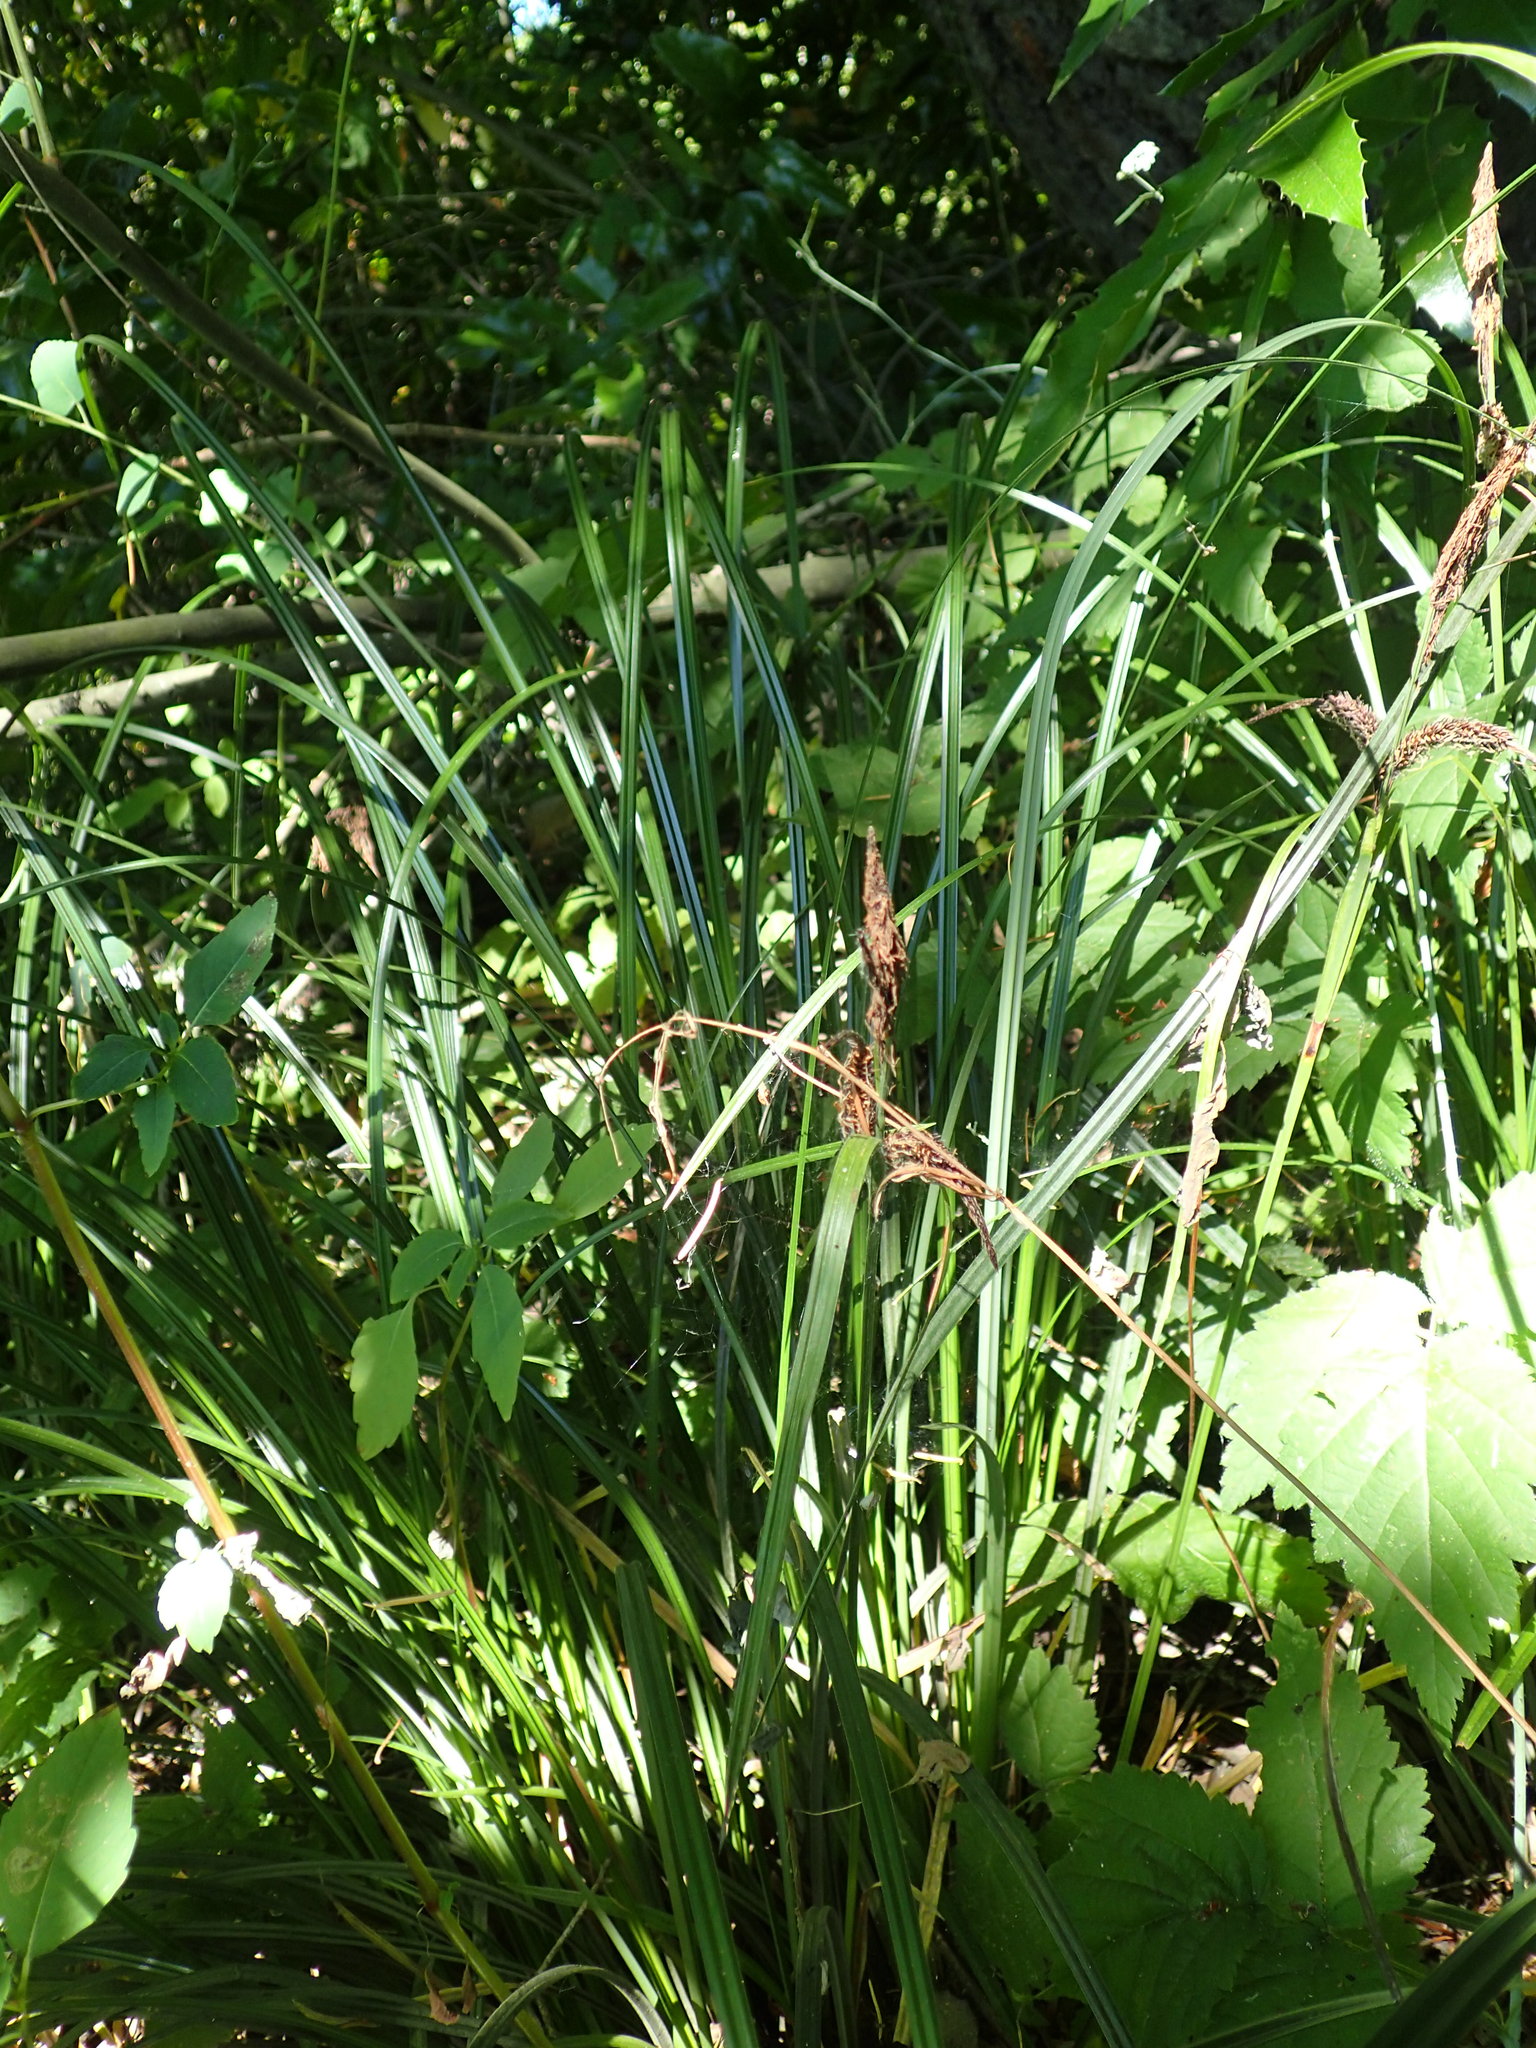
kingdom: Plantae
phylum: Tracheophyta
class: Liliopsida
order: Poales
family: Cyperaceae
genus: Carex
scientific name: Carex obnupta
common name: Slough sedge
